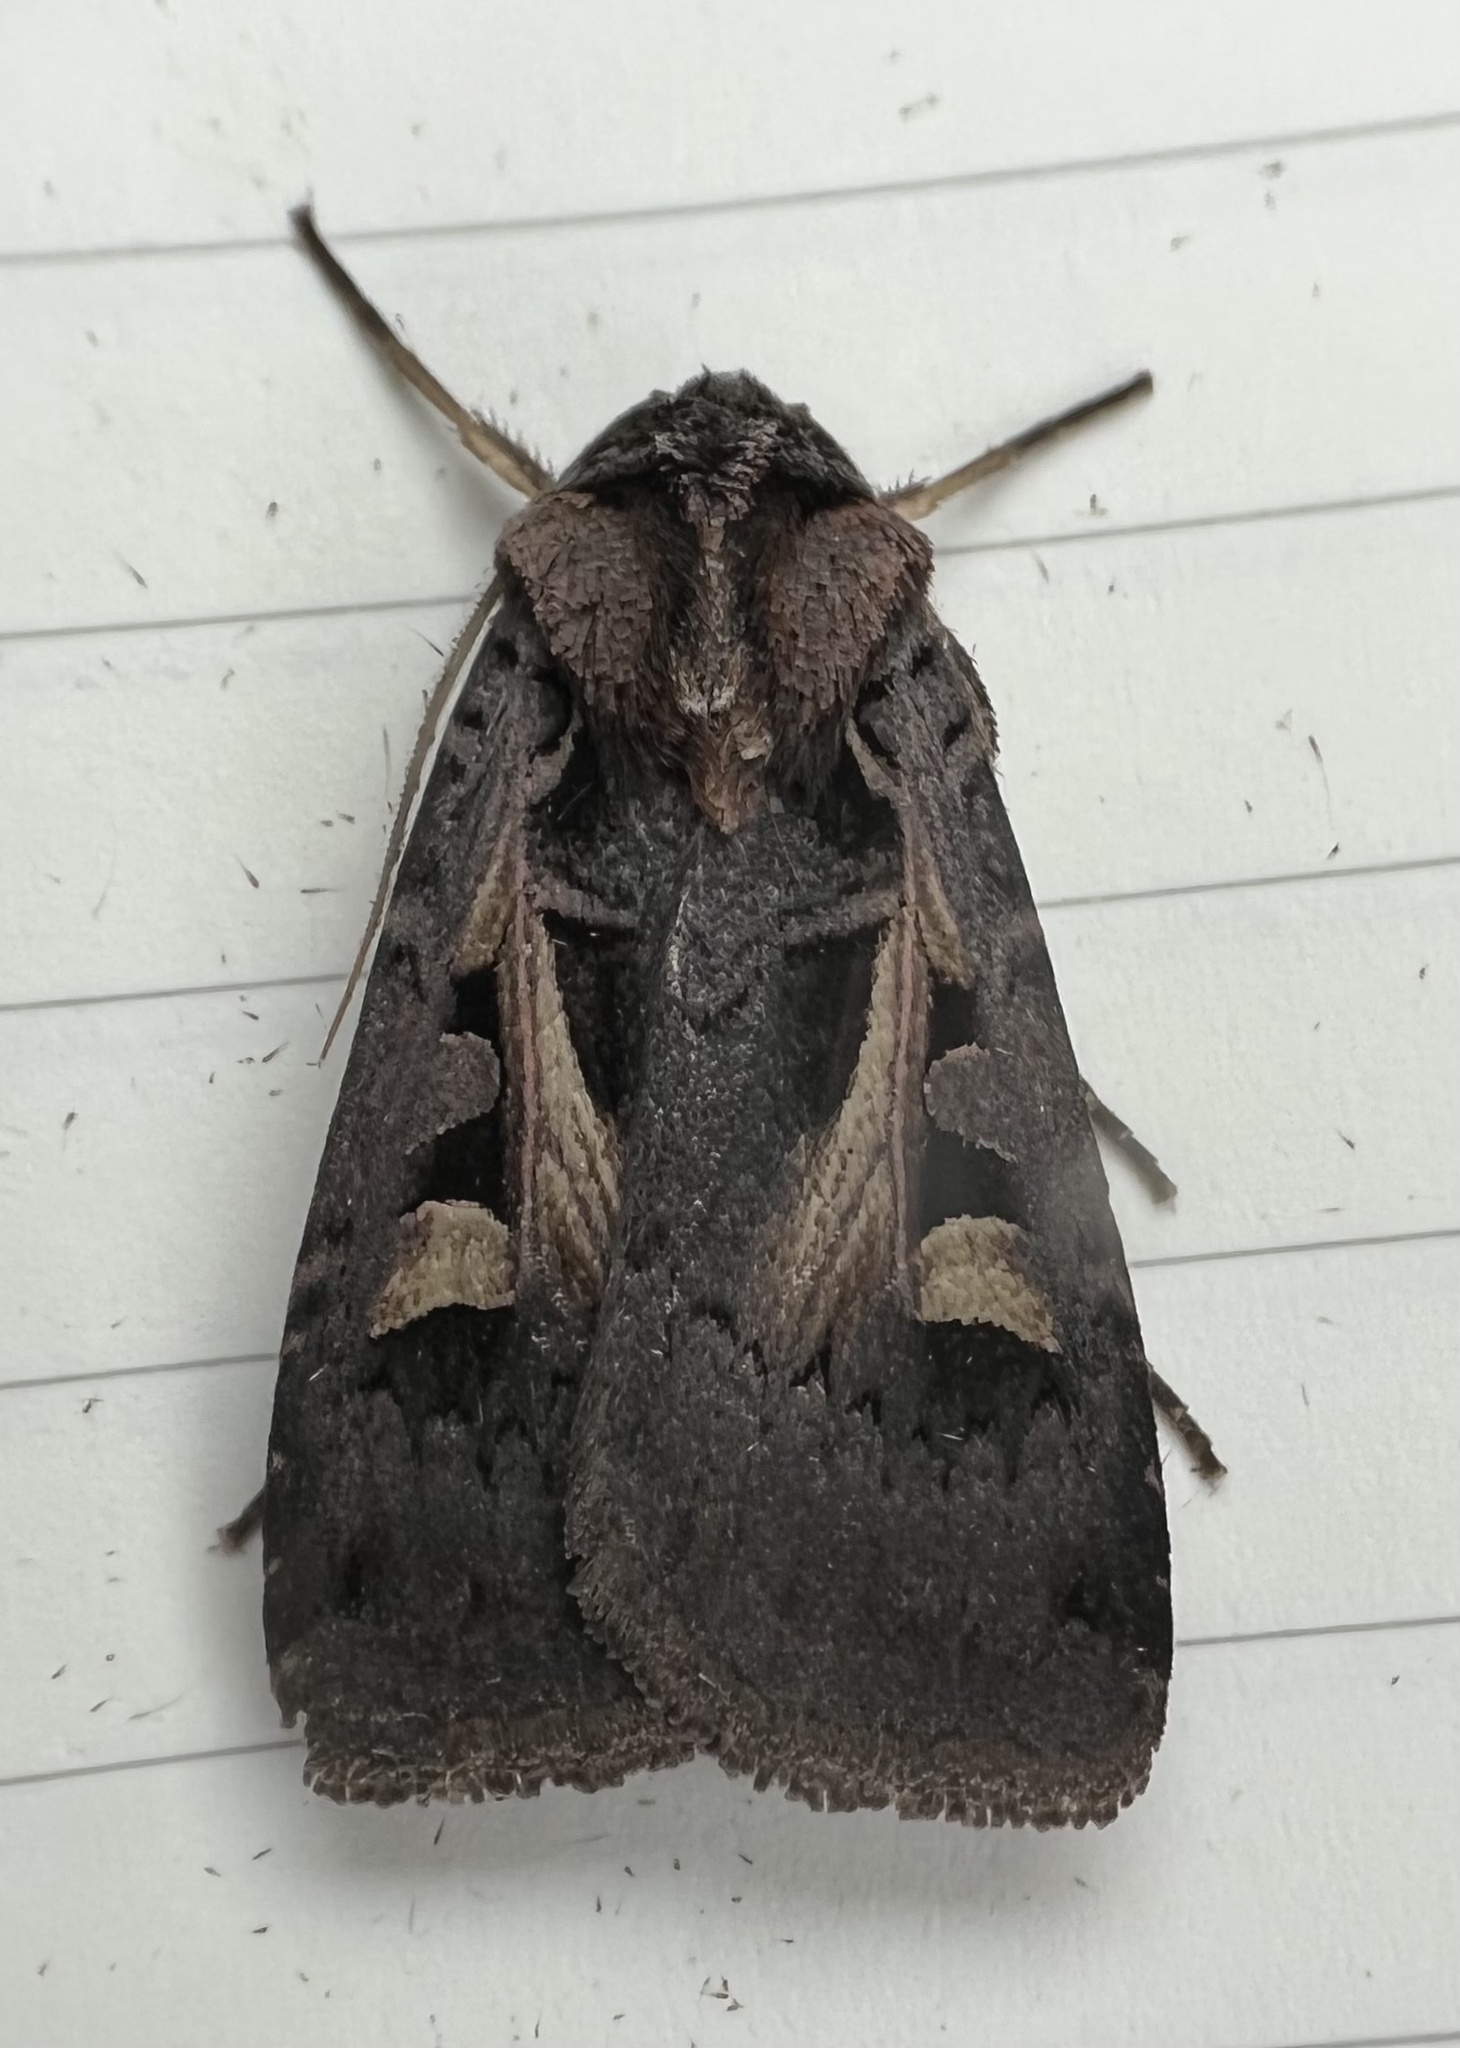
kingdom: Animalia
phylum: Arthropoda
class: Insecta
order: Lepidoptera
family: Noctuidae
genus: Feltia
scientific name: Feltia herilis
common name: Master's dart
